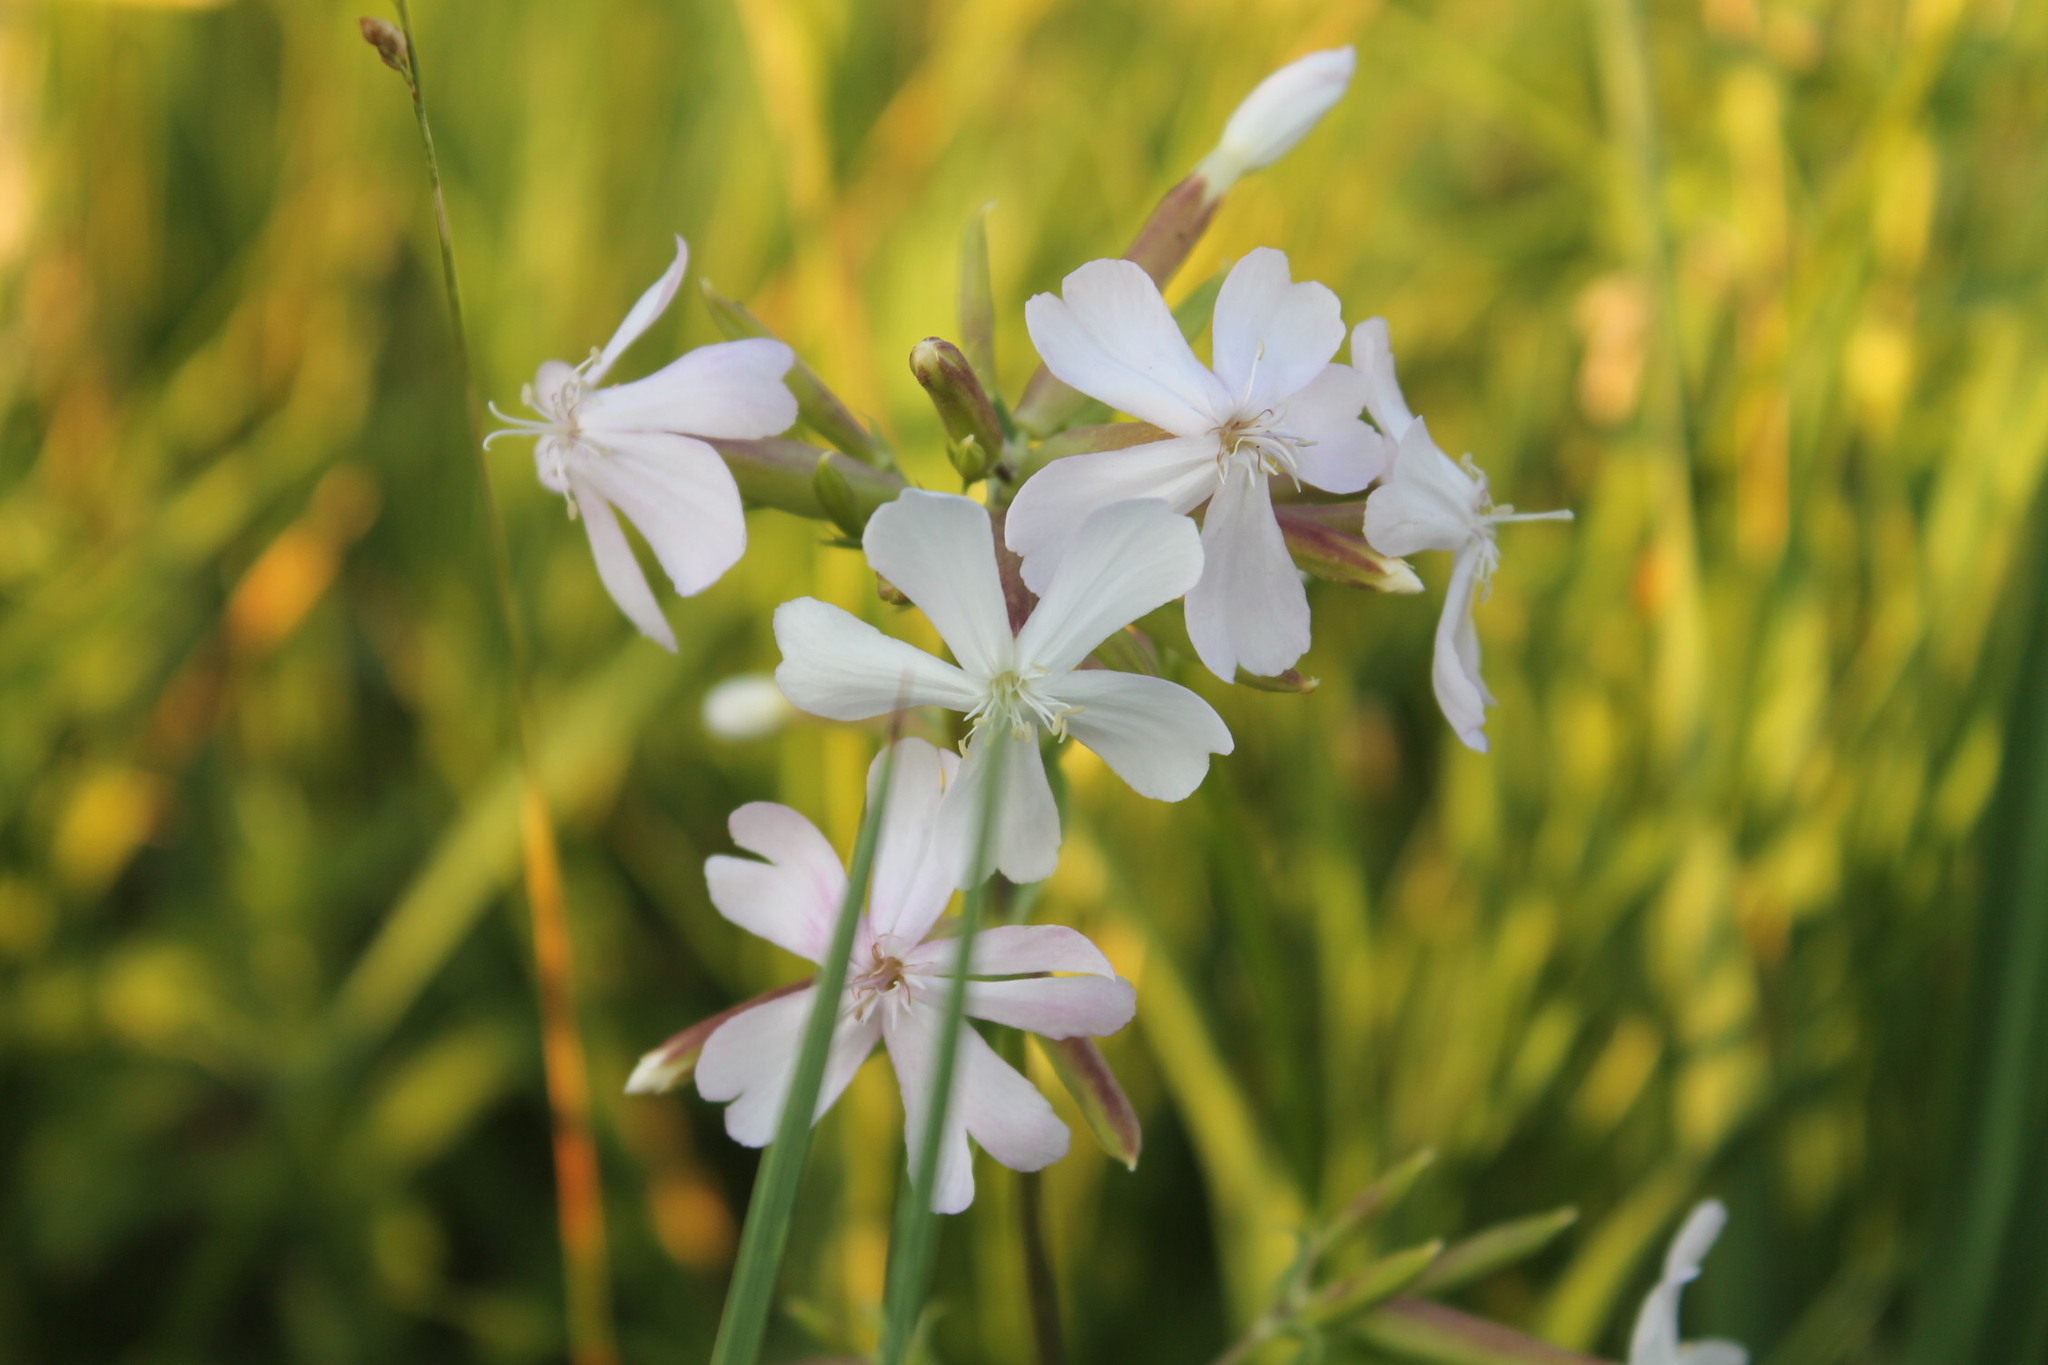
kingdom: Plantae
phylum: Tracheophyta
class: Magnoliopsida
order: Caryophyllales
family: Caryophyllaceae
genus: Saponaria
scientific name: Saponaria officinalis
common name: Soapwort
